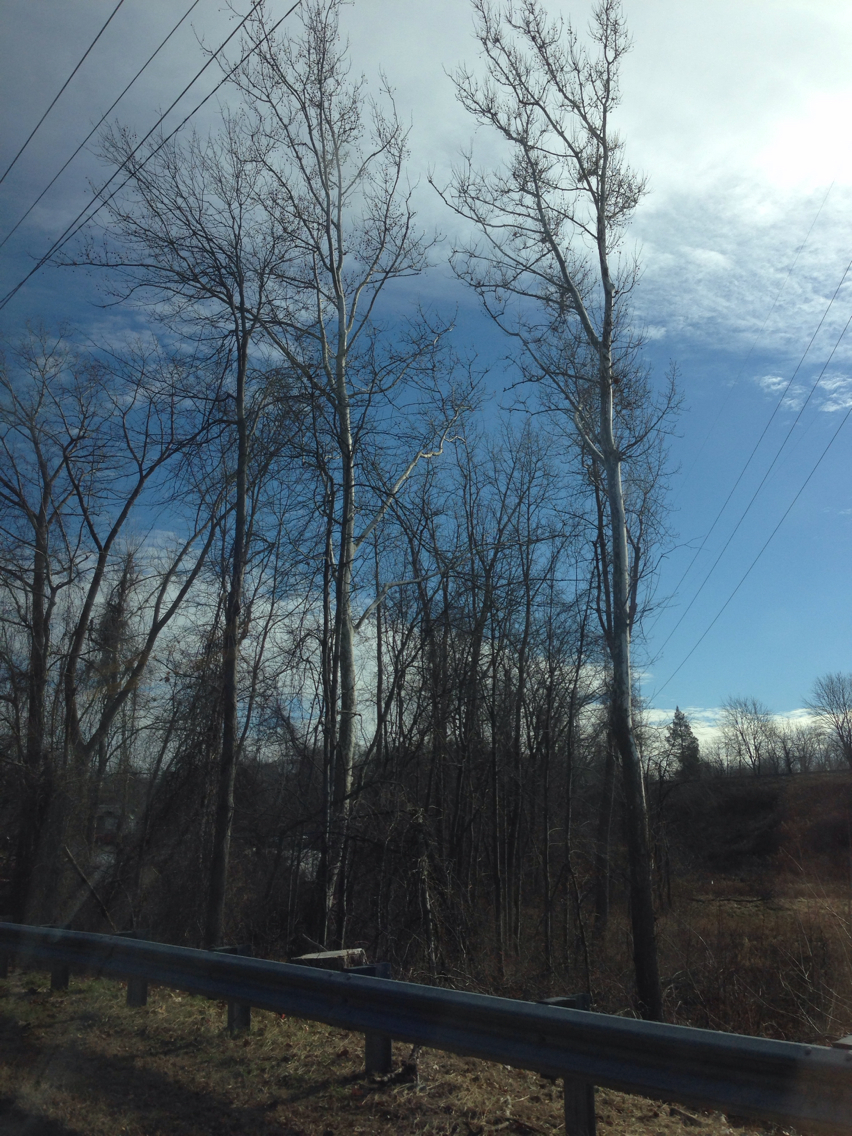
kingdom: Plantae
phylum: Tracheophyta
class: Magnoliopsida
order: Proteales
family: Platanaceae
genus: Platanus
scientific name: Platanus occidentalis
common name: American sycamore
